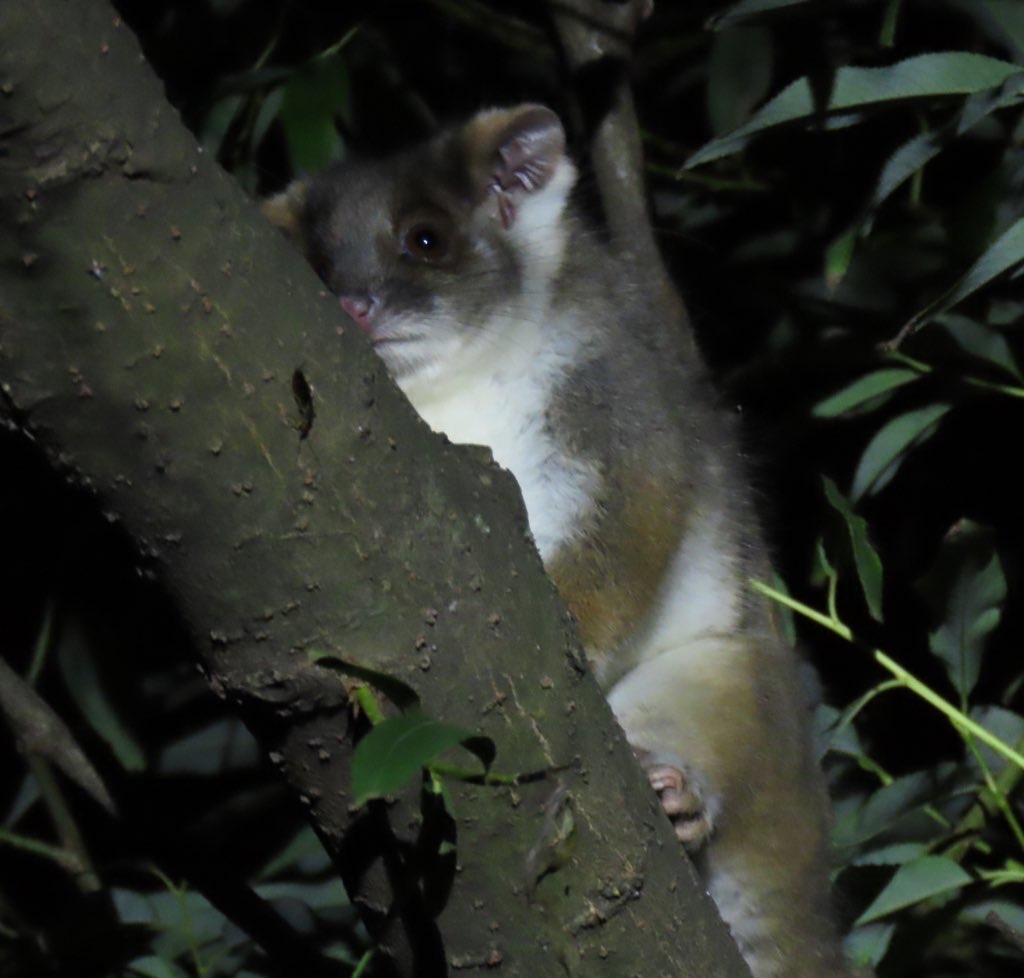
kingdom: Animalia
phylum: Chordata
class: Mammalia
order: Diprotodontia
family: Pseudocheiridae
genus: Pseudocheirus
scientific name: Pseudocheirus peregrinus
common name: Common ringtail possum
